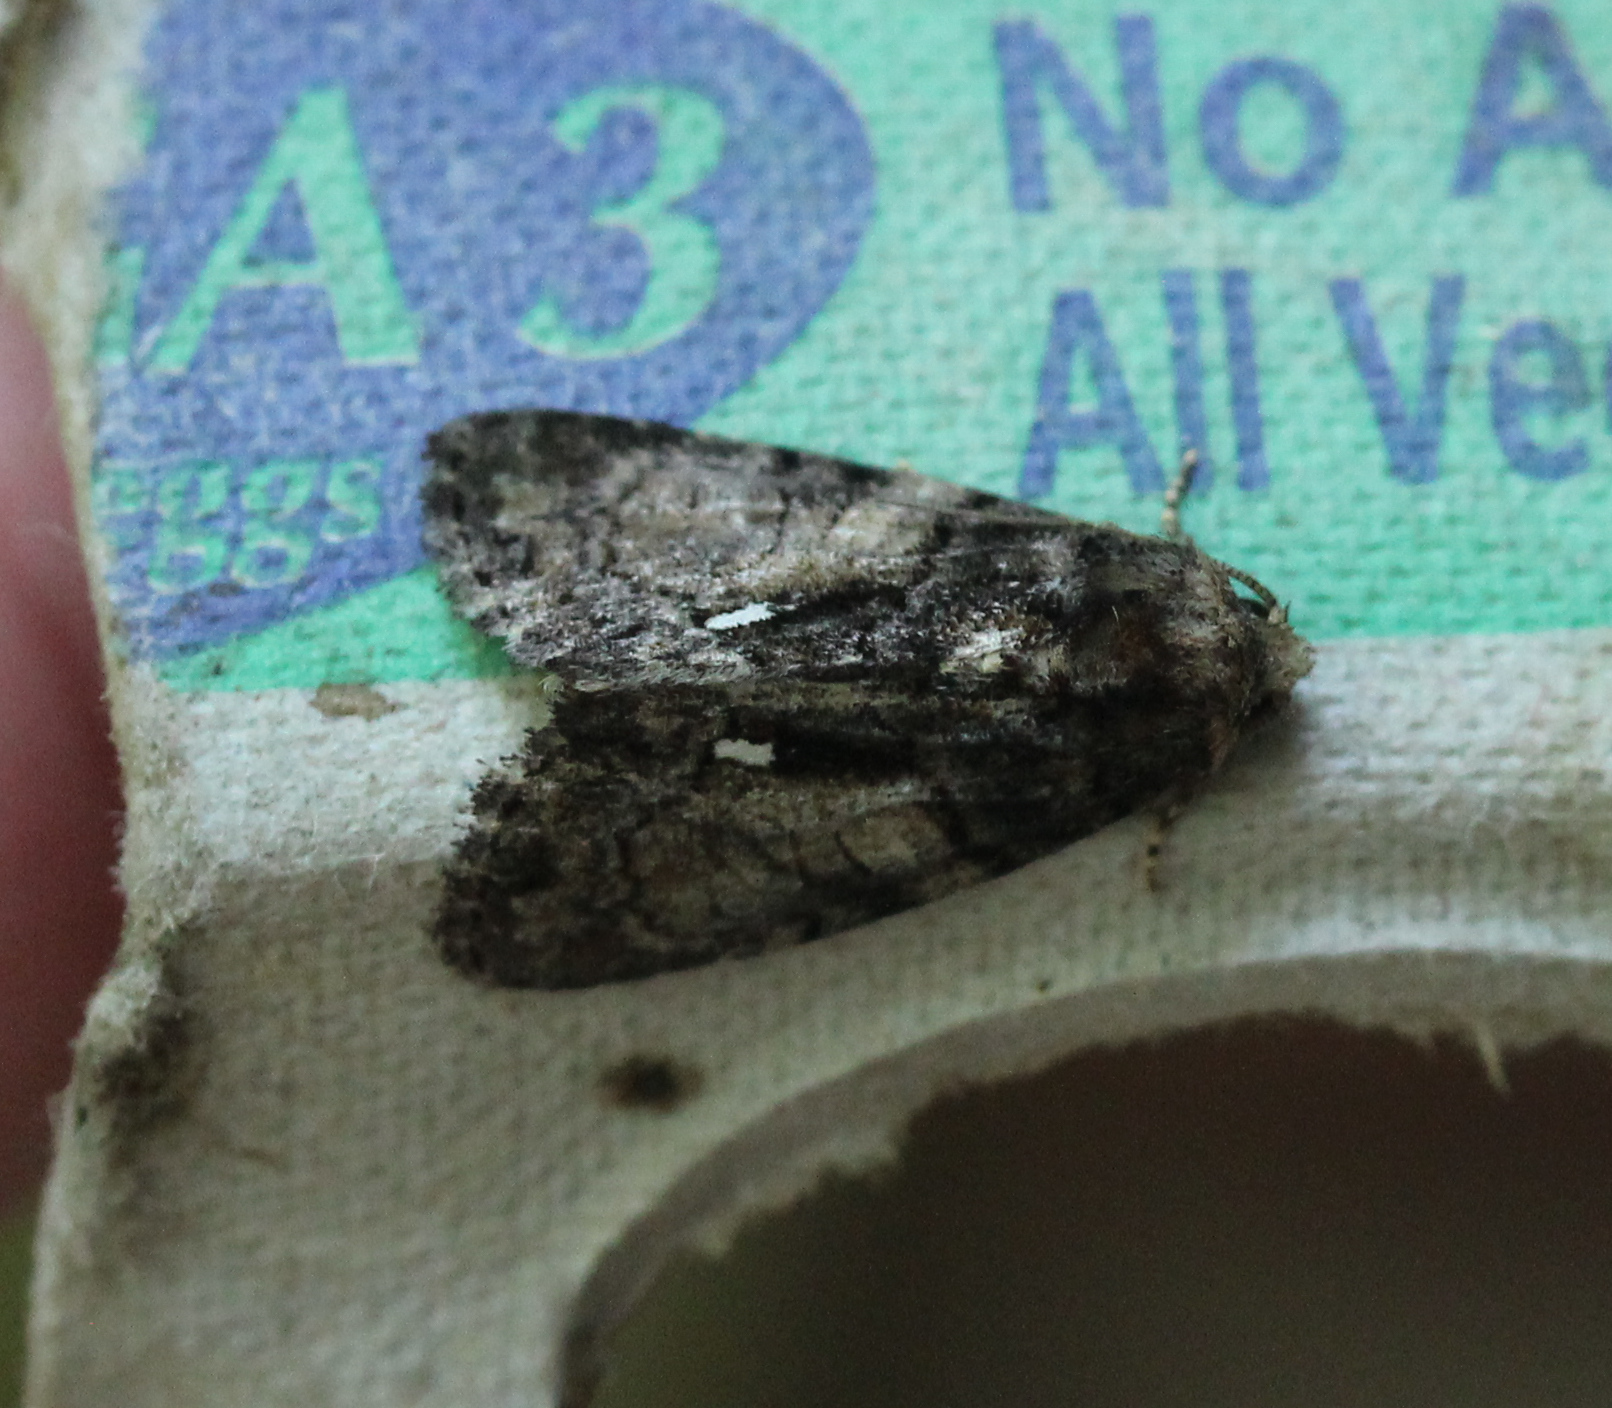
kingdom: Animalia
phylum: Arthropoda
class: Insecta
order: Lepidoptera
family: Noctuidae
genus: Chytonix
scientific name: Chytonix palliatricula
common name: Cloaked marvel
